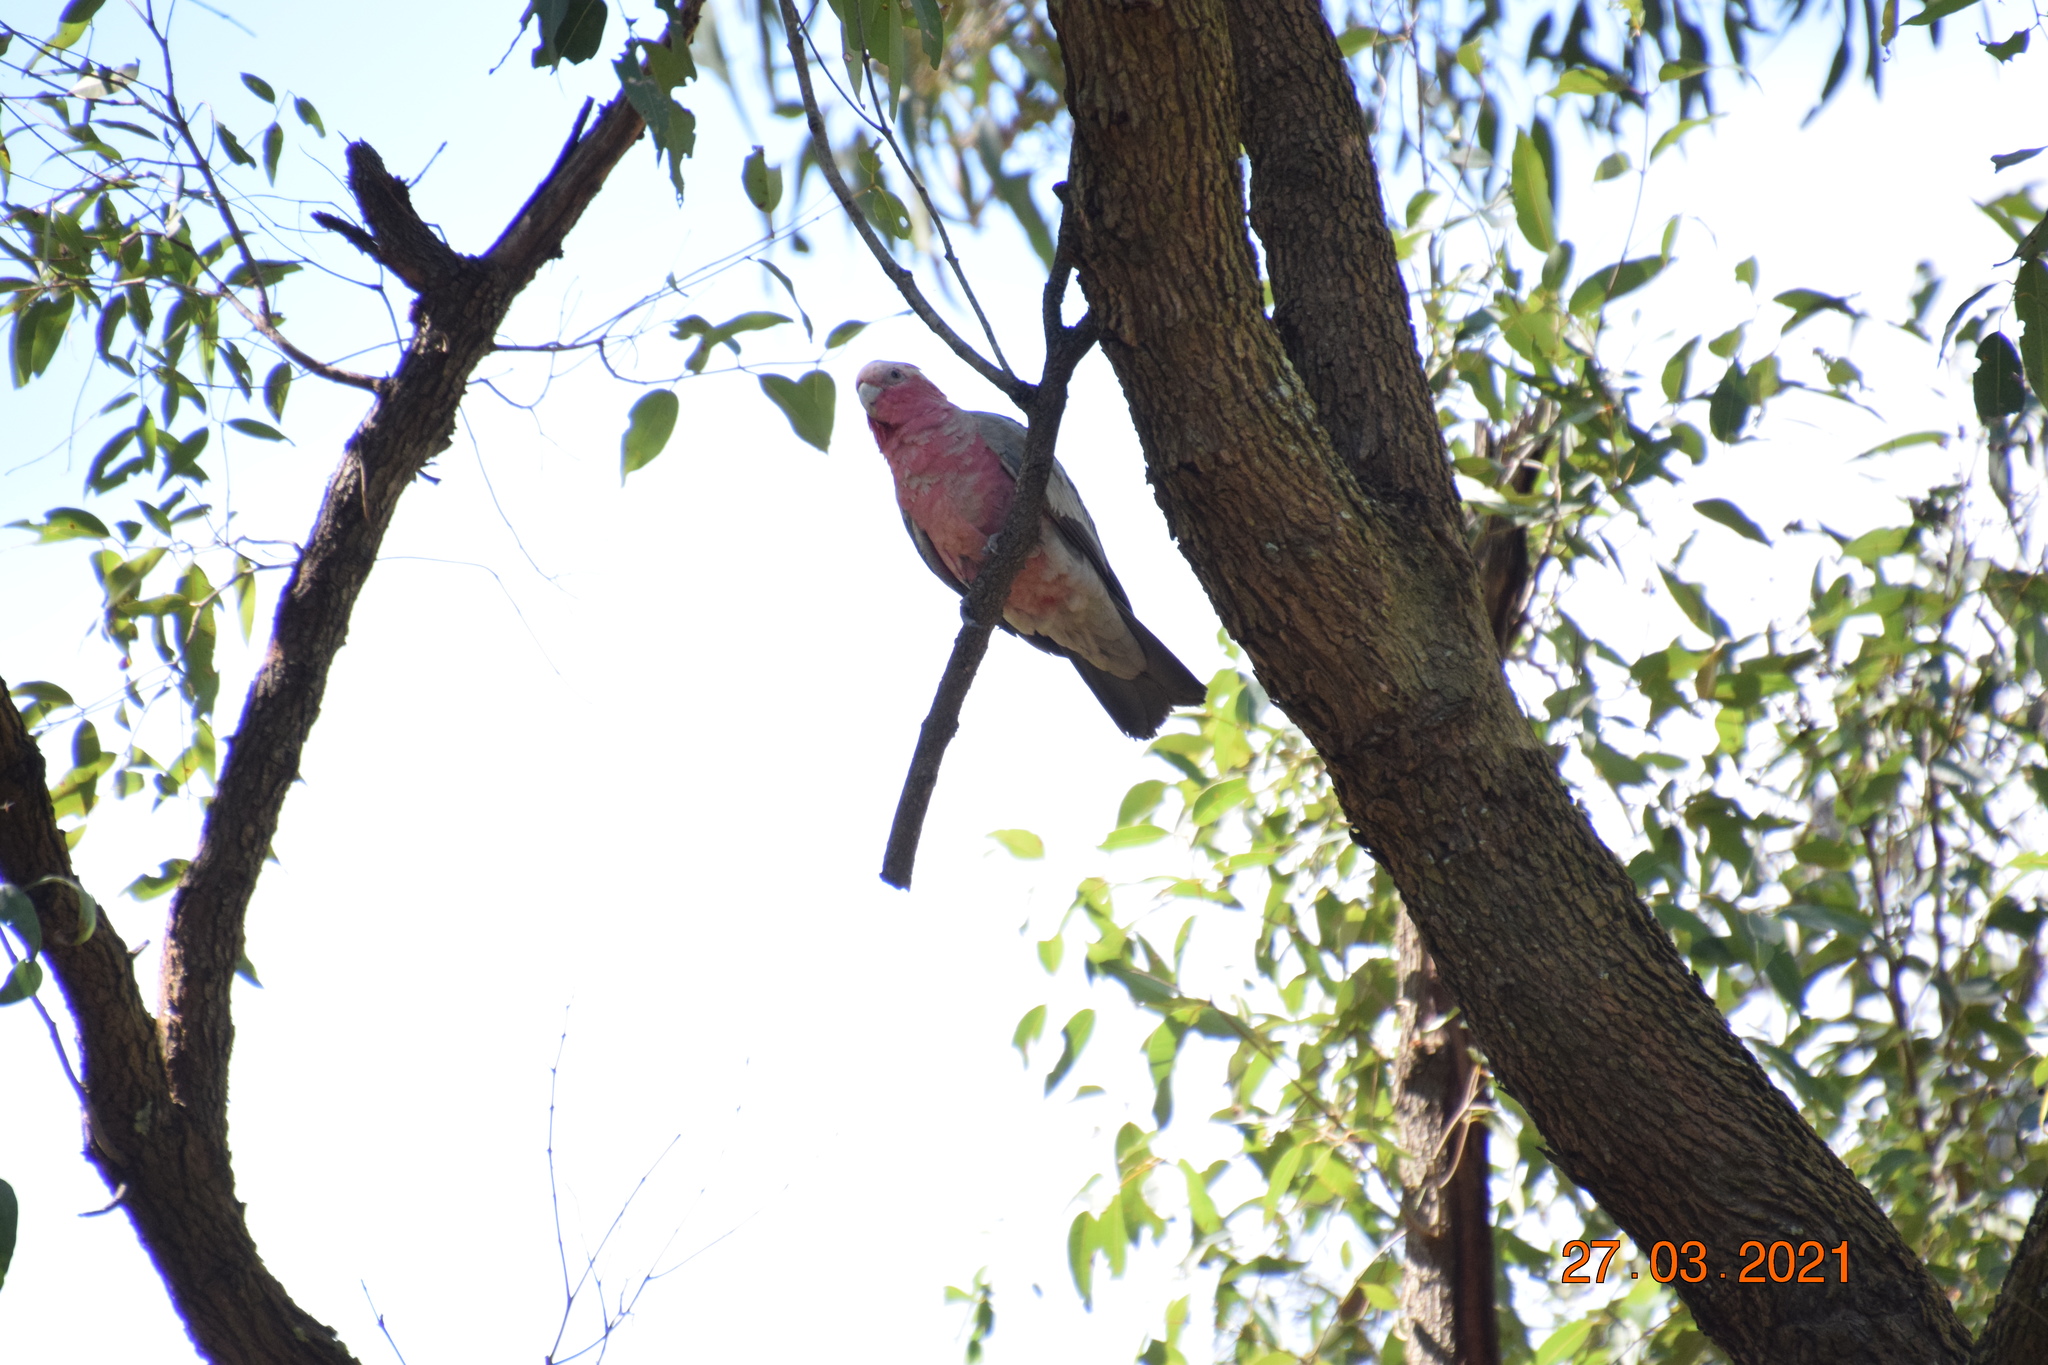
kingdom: Animalia
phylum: Chordata
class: Aves
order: Psittaciformes
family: Psittacidae
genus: Eolophus
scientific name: Eolophus roseicapilla
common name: Galah
